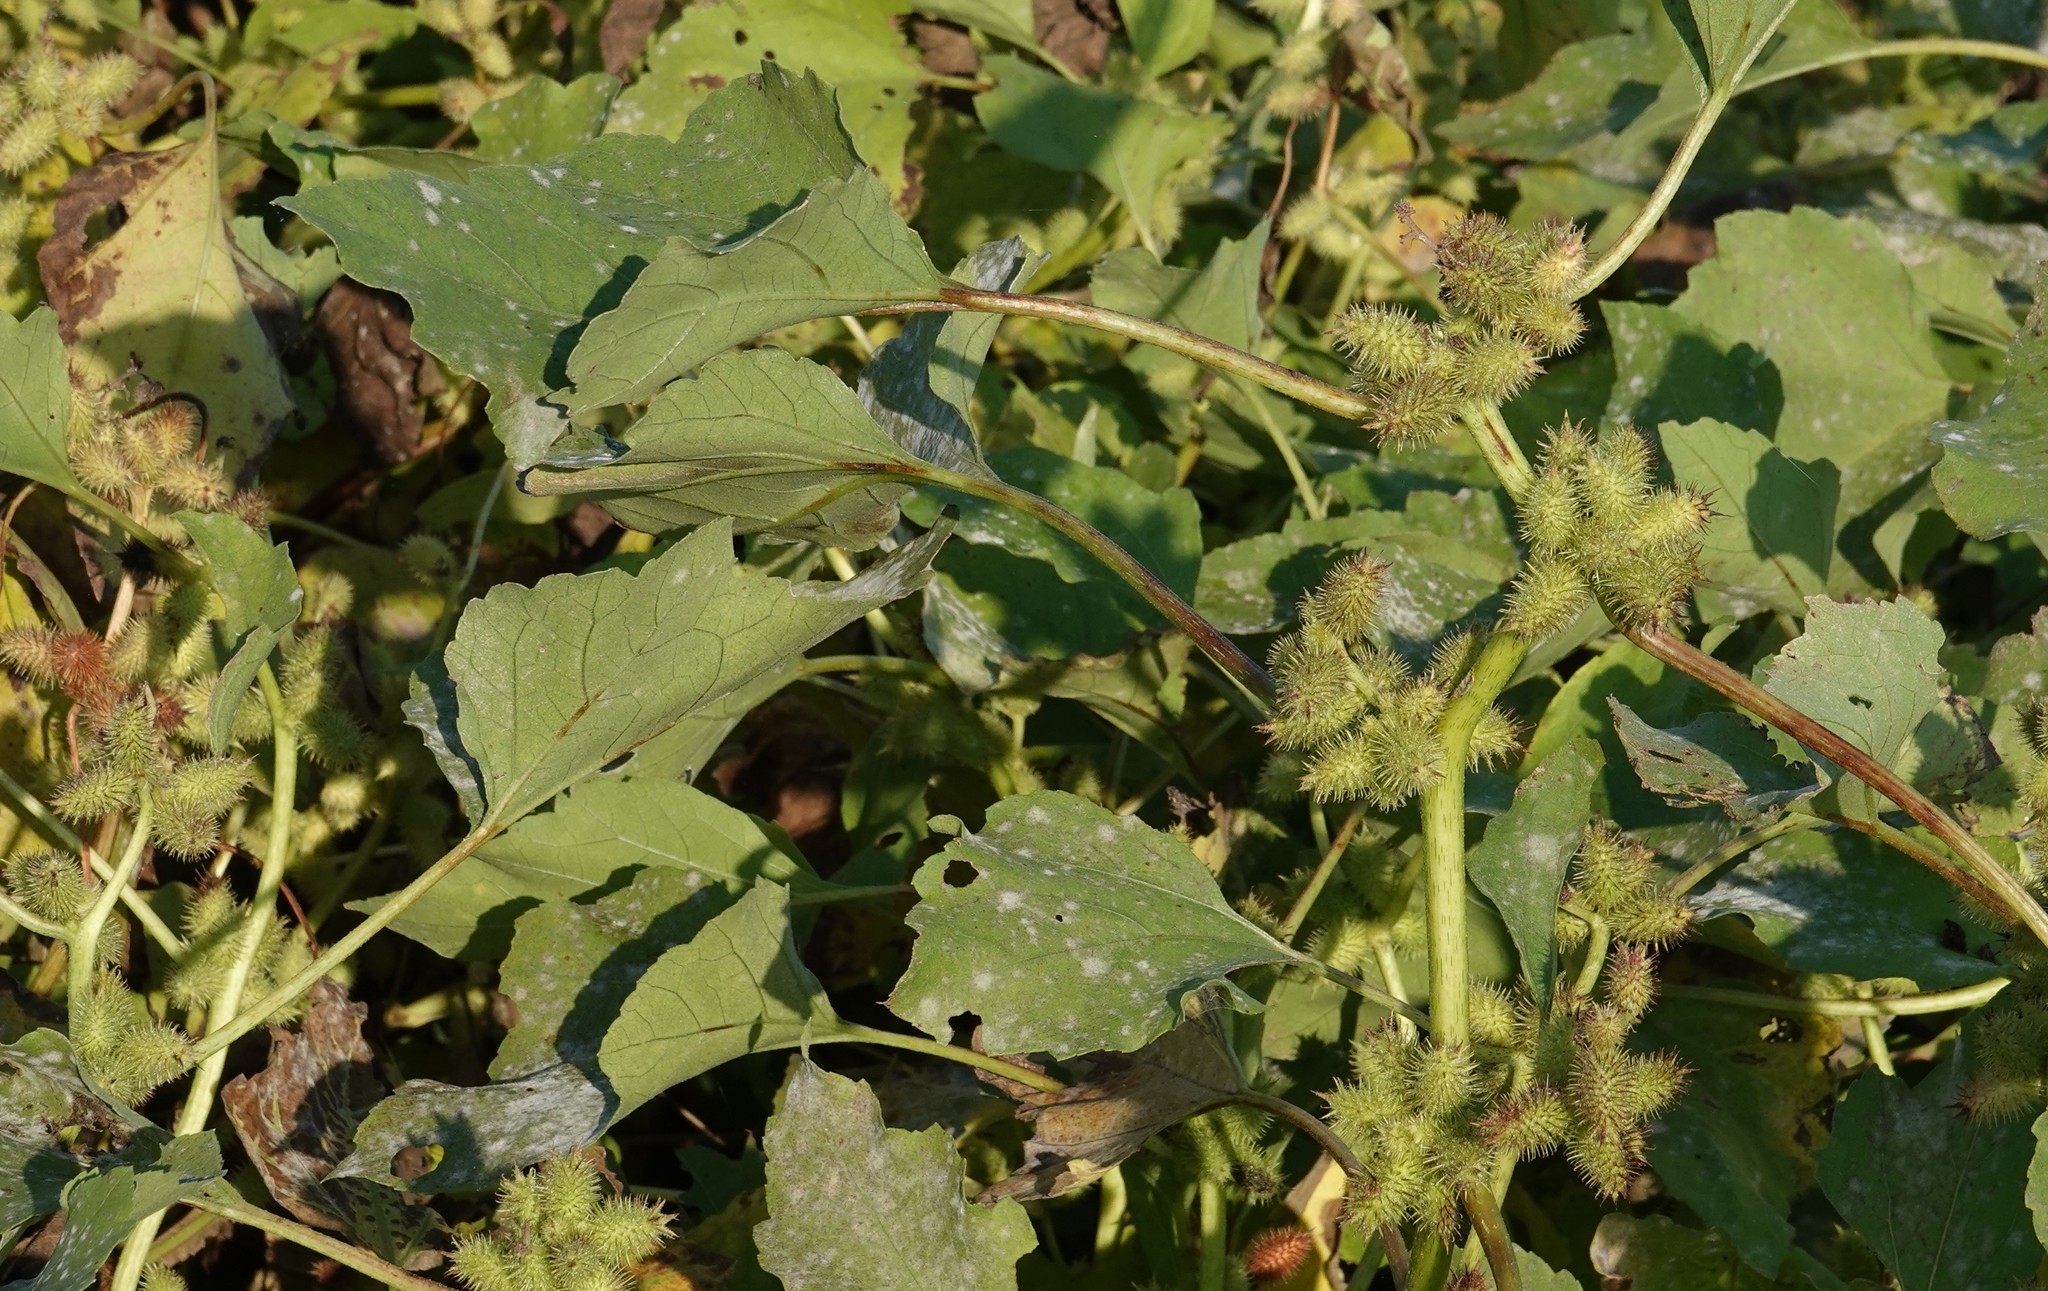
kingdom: Plantae
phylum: Tracheophyta
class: Magnoliopsida
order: Asterales
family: Asteraceae
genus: Xanthium
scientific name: Xanthium strumarium
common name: Rough cocklebur
